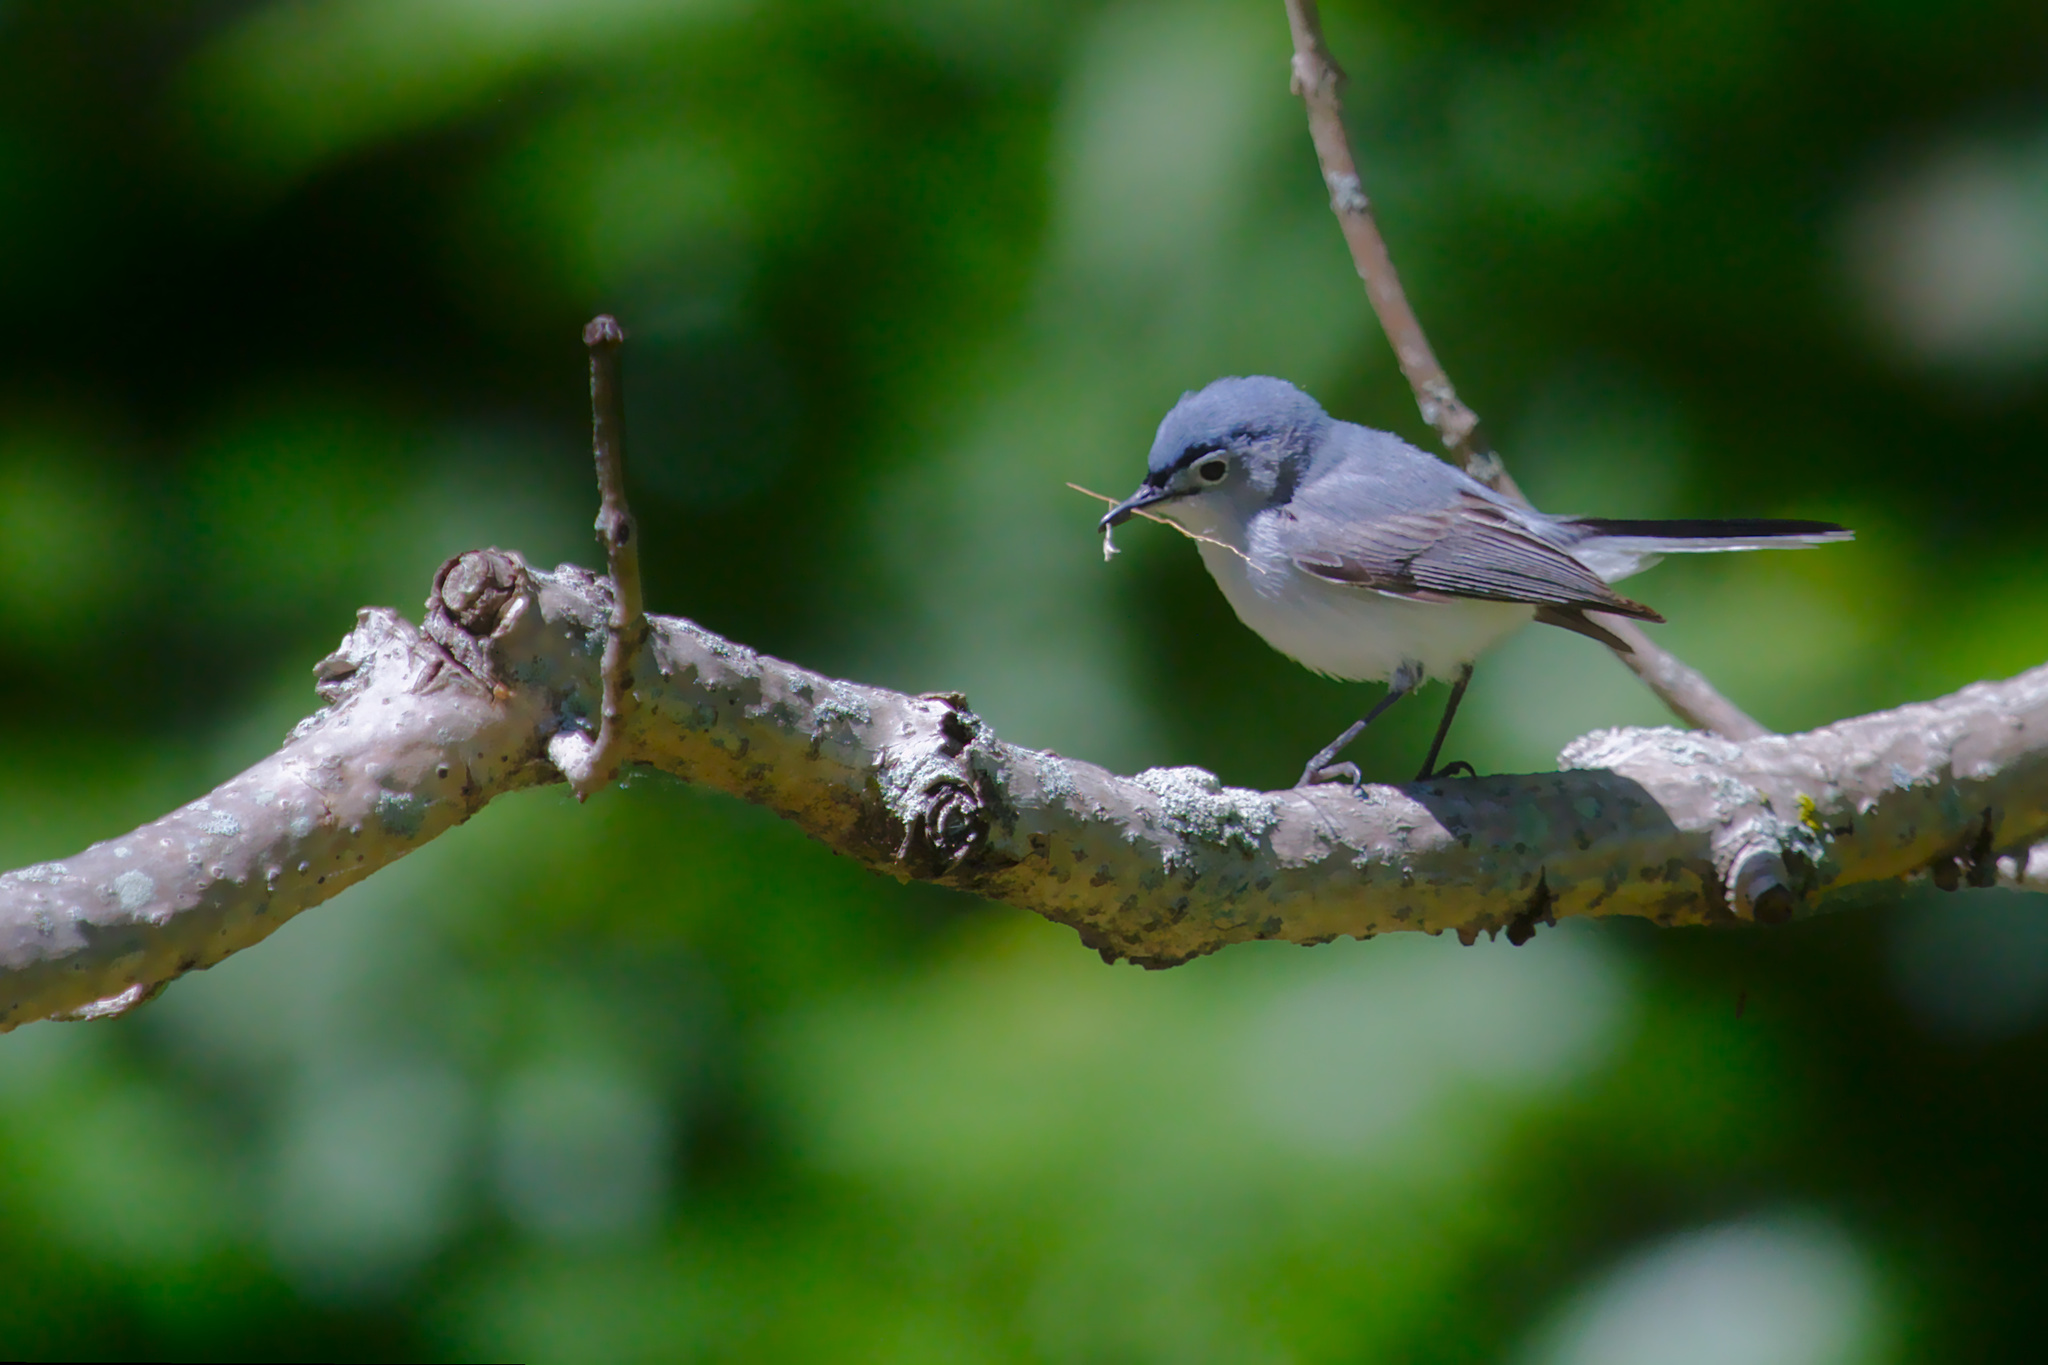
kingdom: Animalia
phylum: Chordata
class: Aves
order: Passeriformes
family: Polioptilidae
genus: Polioptila
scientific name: Polioptila caerulea
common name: Blue-gray gnatcatcher
